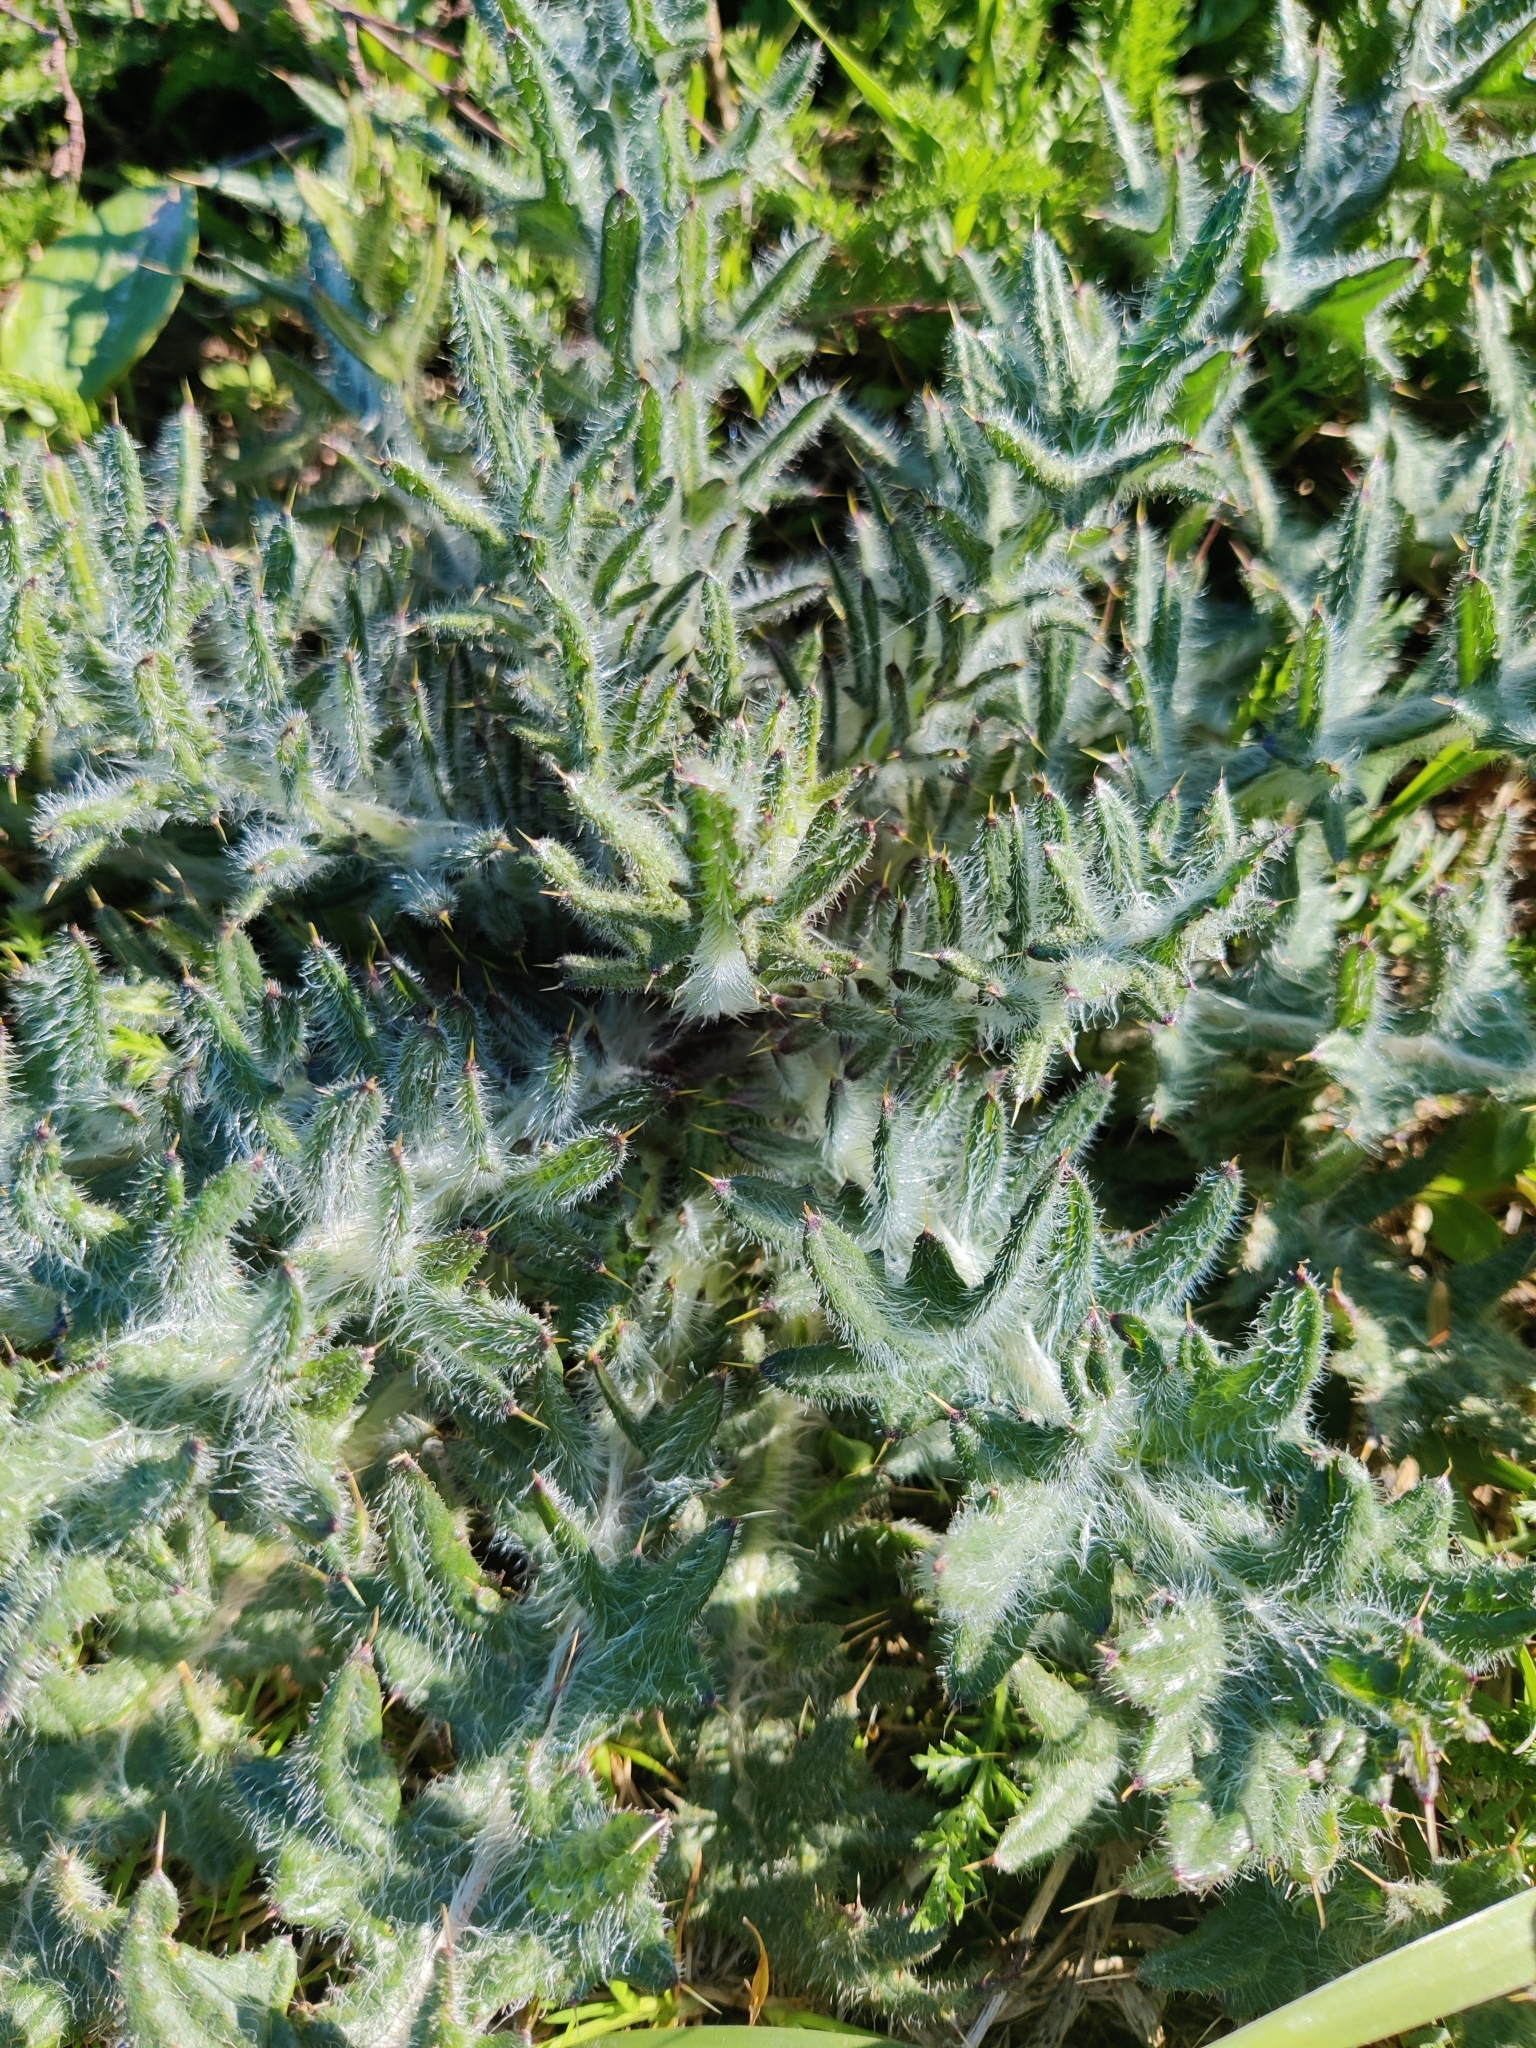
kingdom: Plantae
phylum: Tracheophyta
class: Magnoliopsida
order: Asterales
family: Asteraceae
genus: Cirsium
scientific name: Cirsium vulgare
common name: Bull thistle
